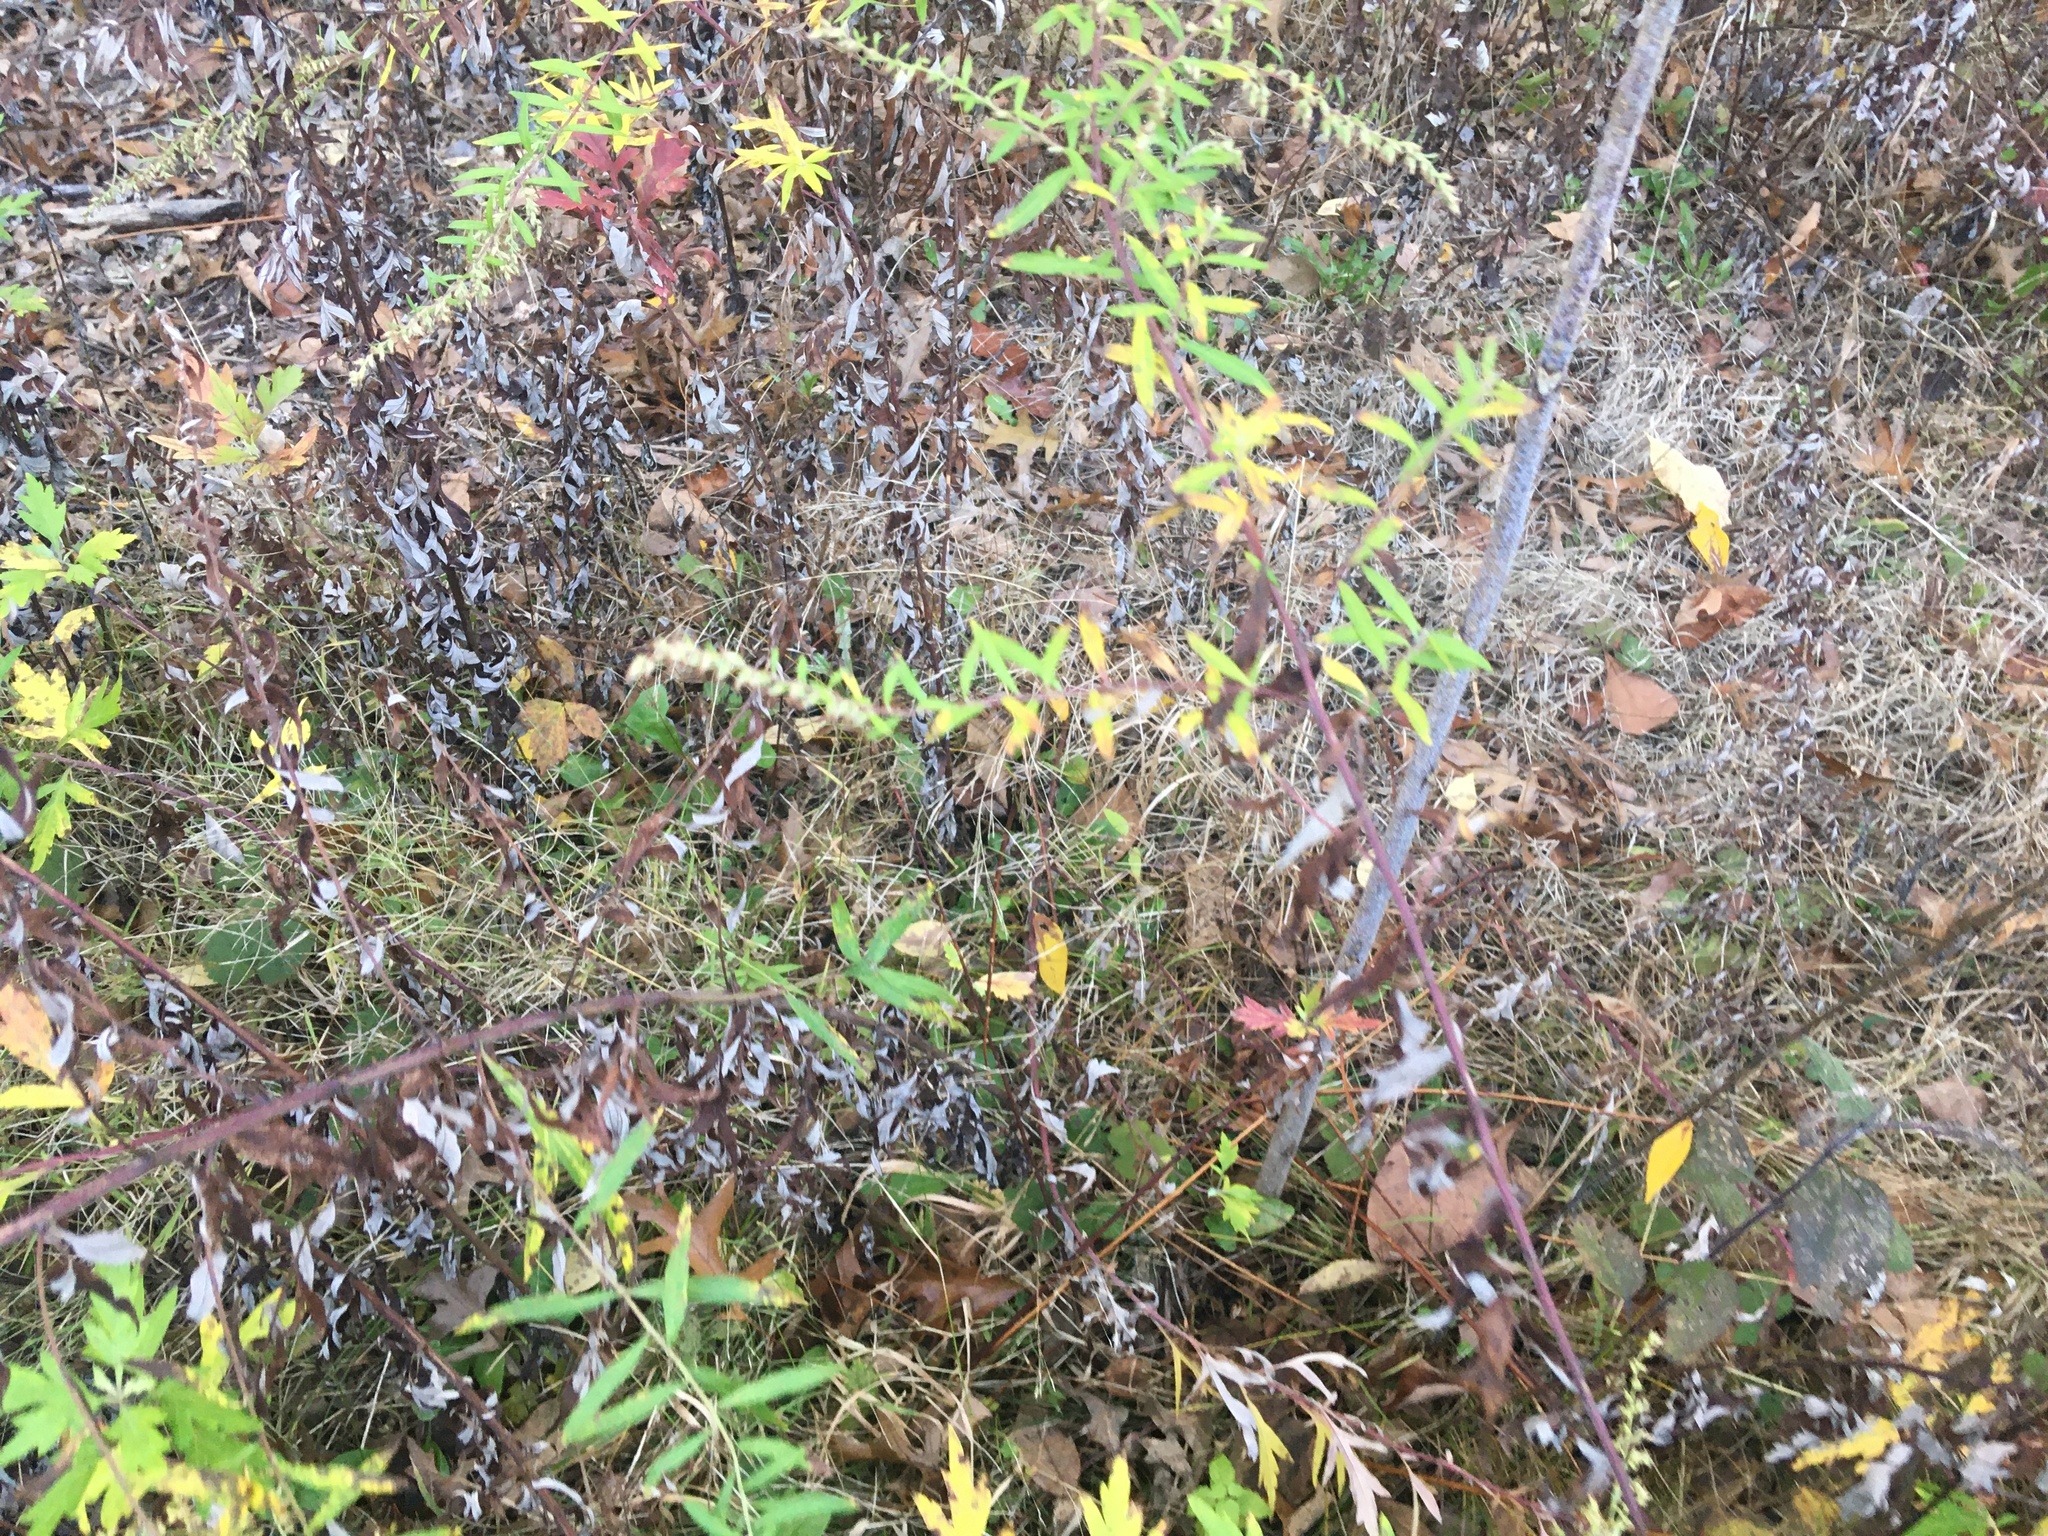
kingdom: Plantae
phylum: Tracheophyta
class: Magnoliopsida
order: Asterales
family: Asteraceae
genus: Artemisia
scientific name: Artemisia vulgaris
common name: Mugwort
